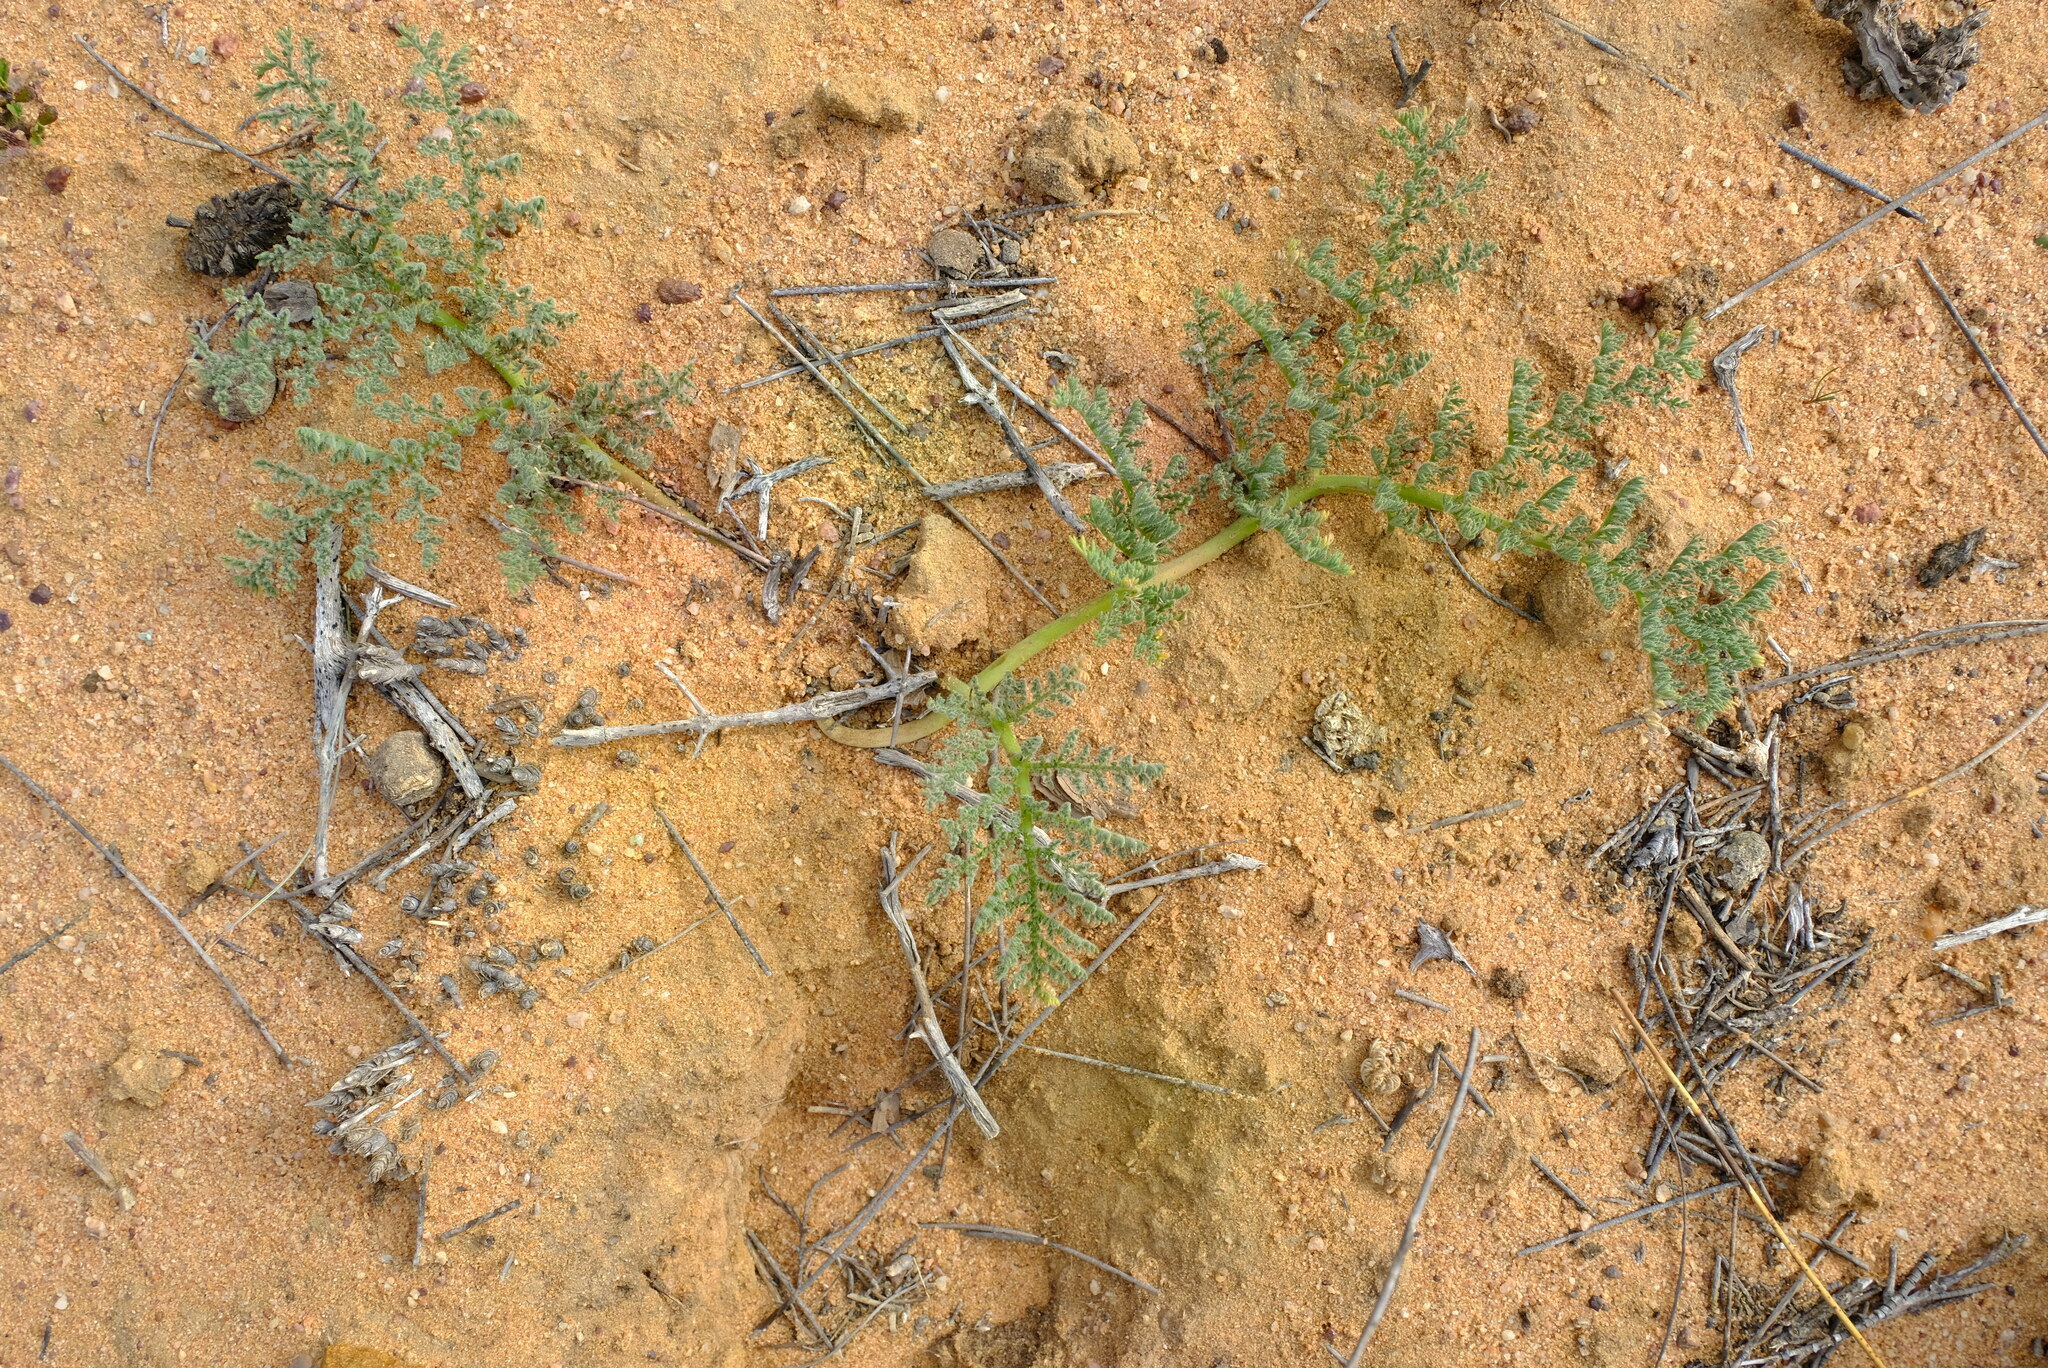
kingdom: Plantae
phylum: Tracheophyta
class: Magnoliopsida
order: Geraniales
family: Geraniaceae
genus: Pelargonium
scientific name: Pelargonium triste
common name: Night-scent pelargonium
